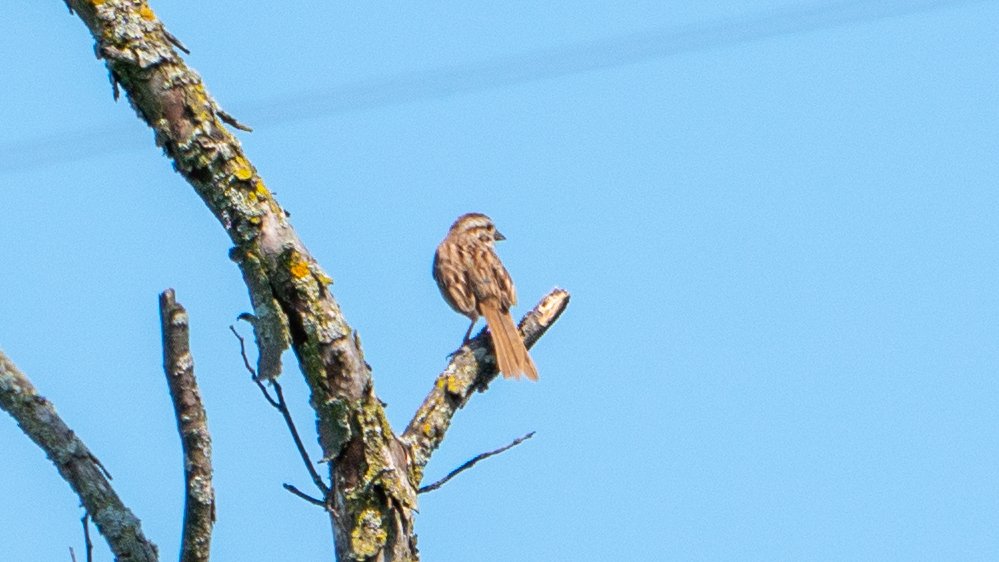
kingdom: Animalia
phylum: Chordata
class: Aves
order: Passeriformes
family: Passerellidae
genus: Melospiza
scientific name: Melospiza melodia
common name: Song sparrow
